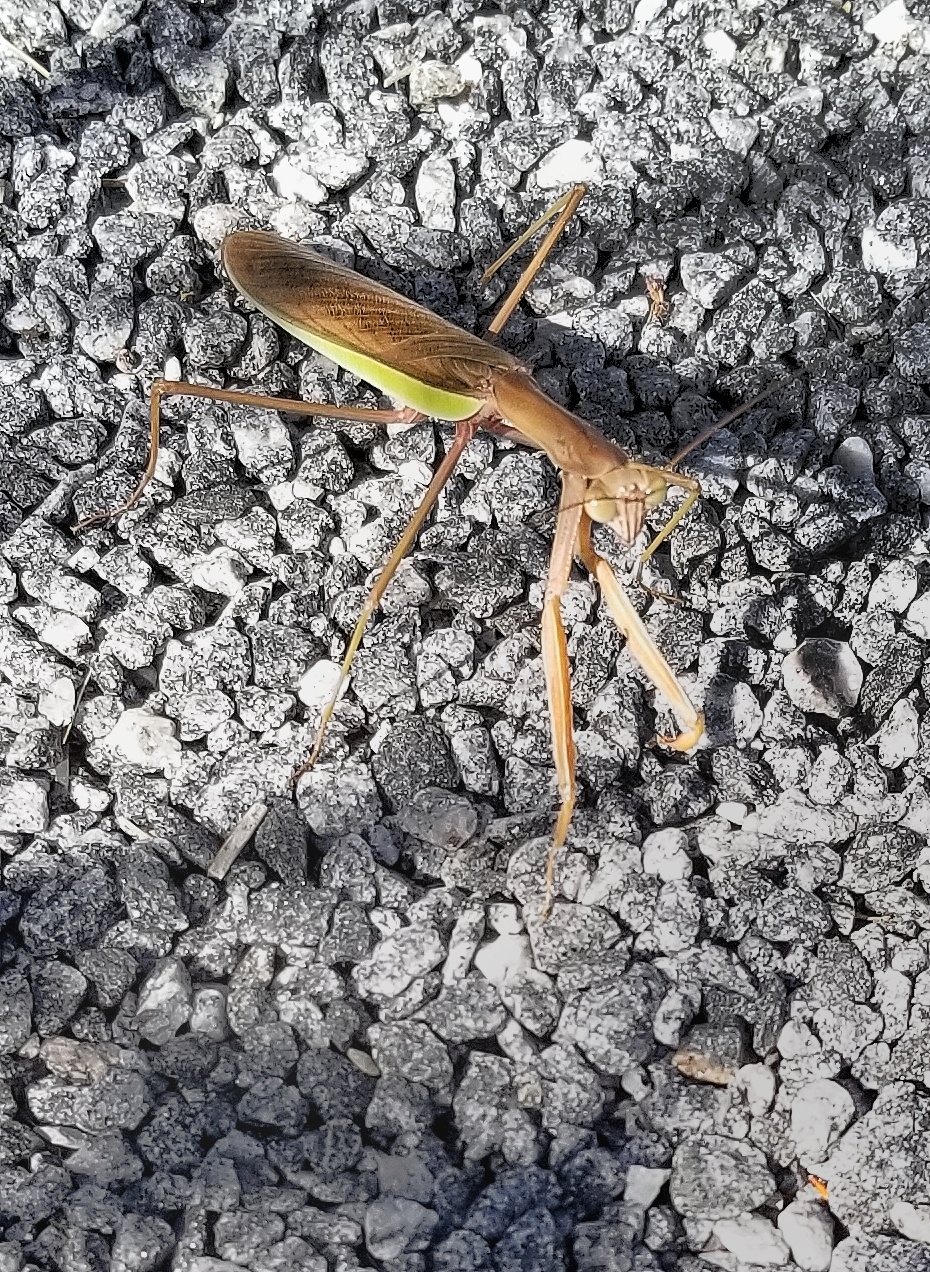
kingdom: Animalia
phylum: Arthropoda
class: Insecta
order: Mantodea
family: Mantidae
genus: Tenodera
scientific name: Tenodera sinensis
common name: Chinese mantis
